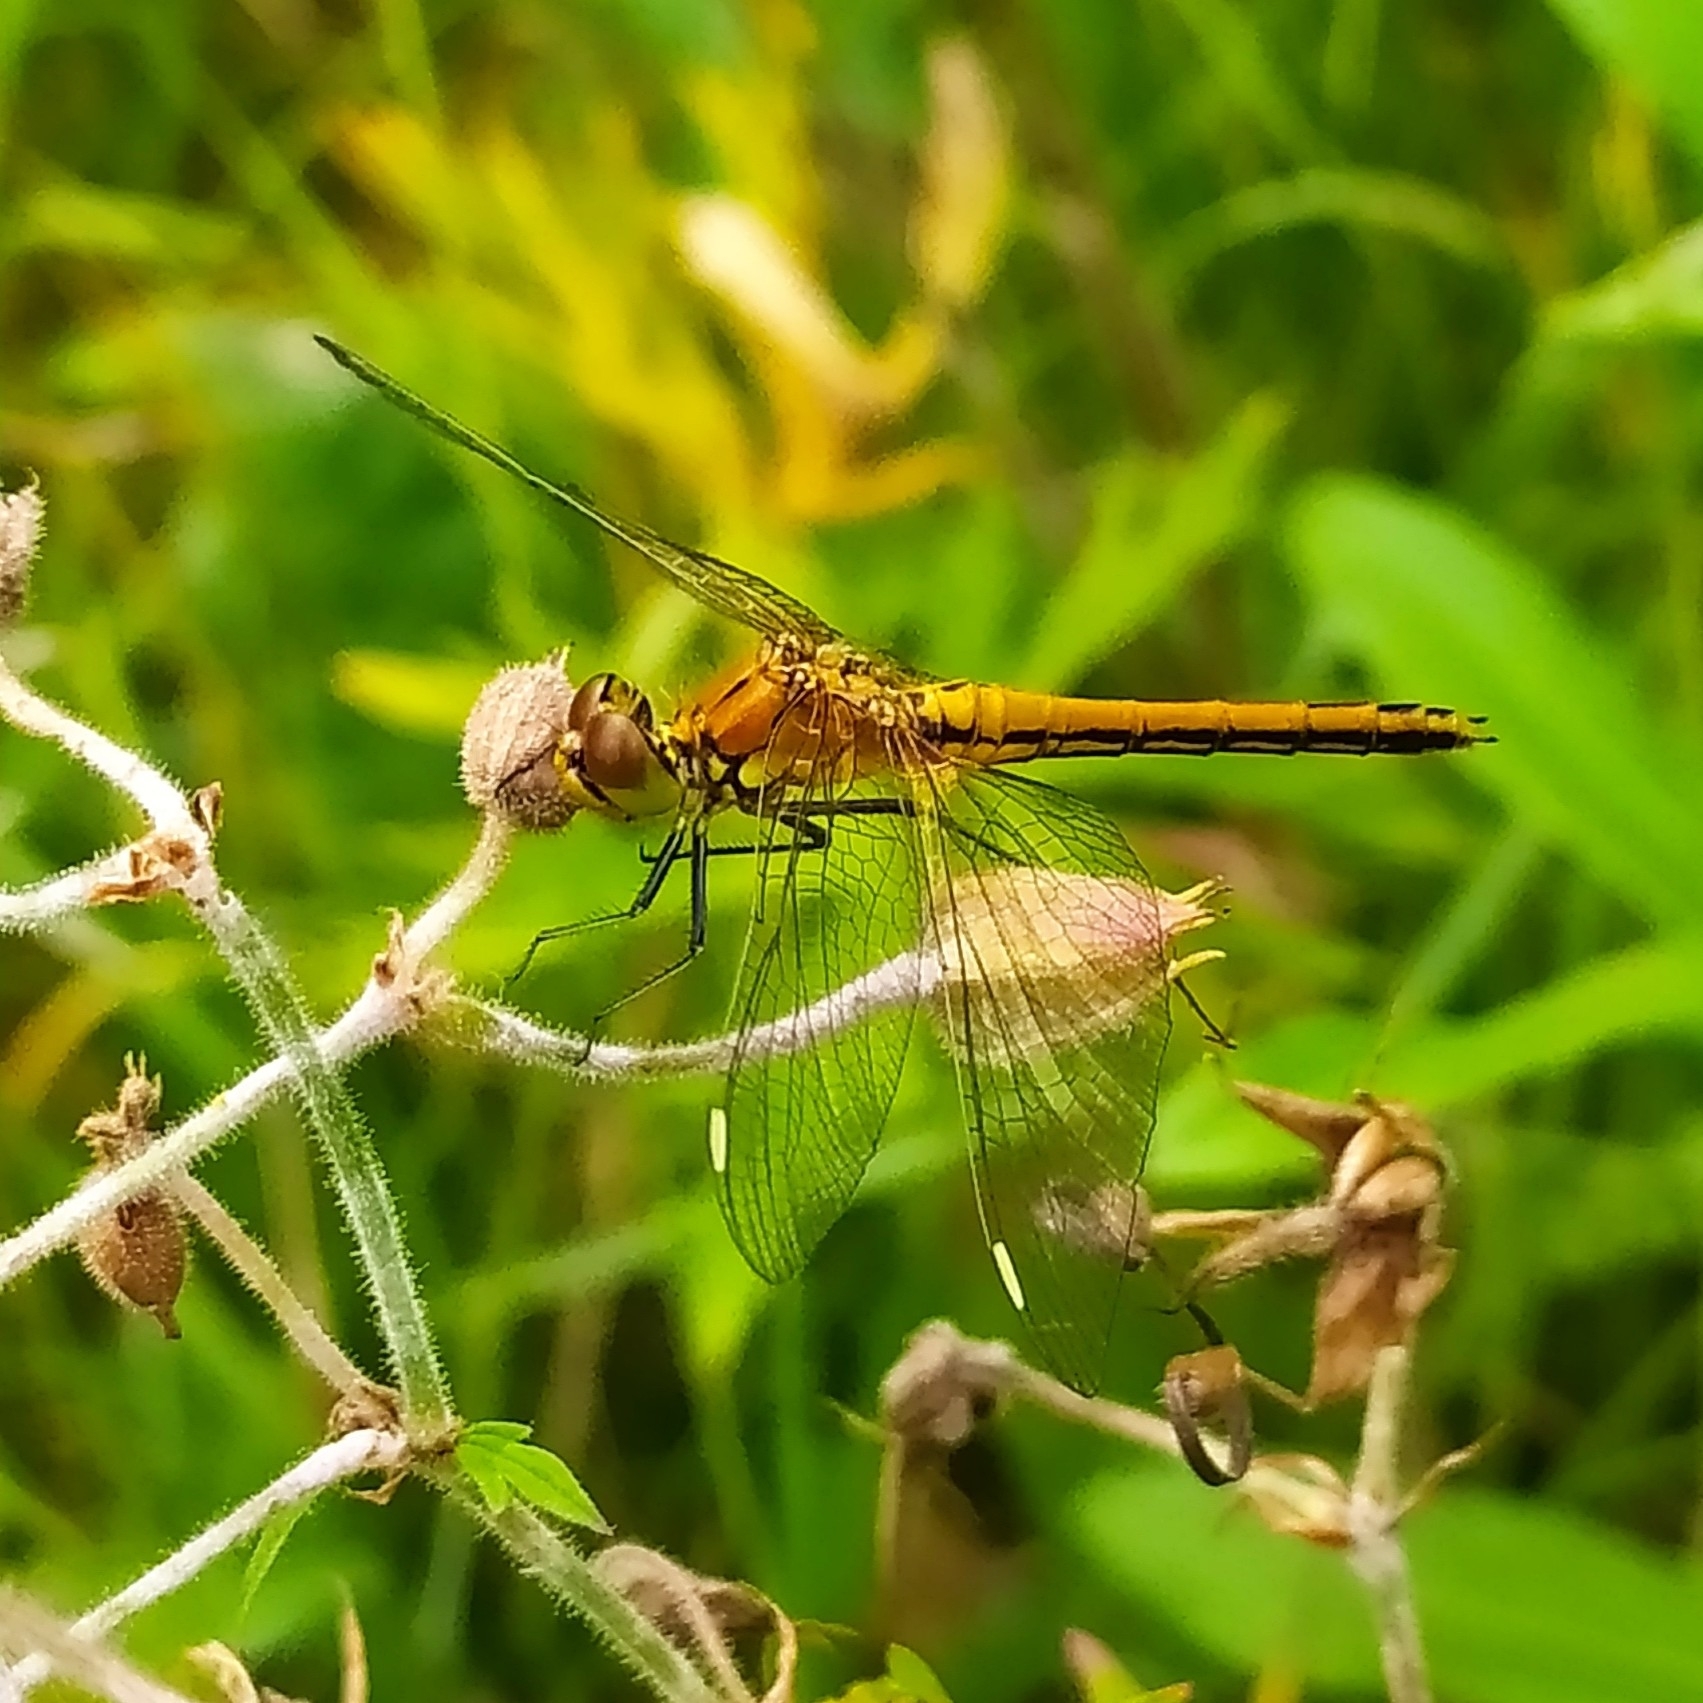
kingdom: Animalia
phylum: Arthropoda
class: Insecta
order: Odonata
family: Libellulidae
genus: Sympetrum
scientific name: Sympetrum flaveolum
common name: Yellow-winged darter
